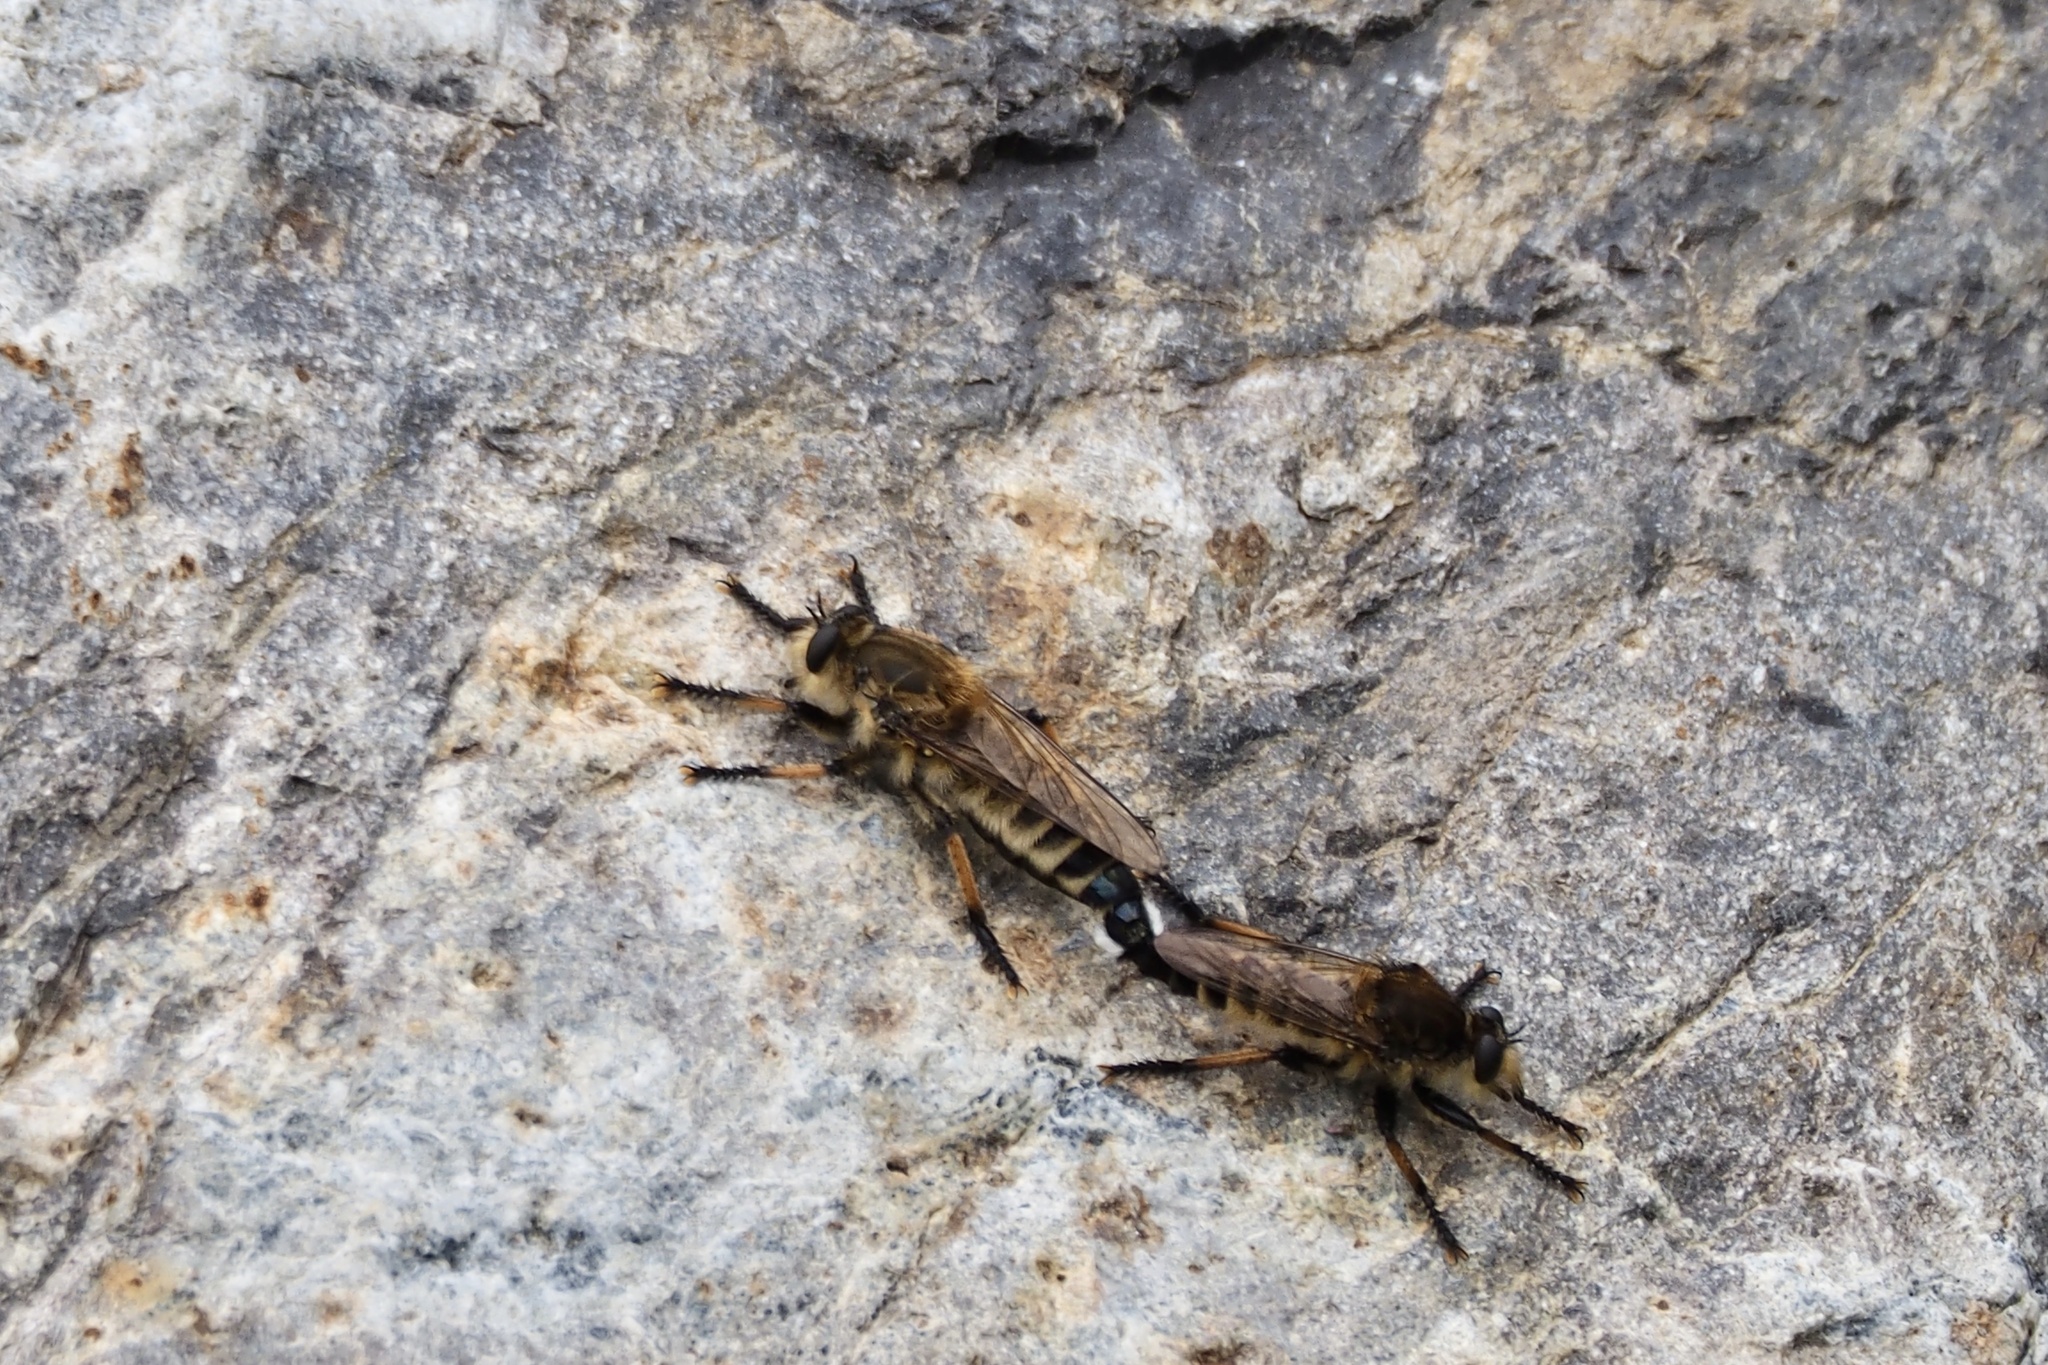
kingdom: Animalia
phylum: Arthropoda
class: Insecta
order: Diptera
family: Asilidae
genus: Promachus
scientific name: Promachus yesonicus
